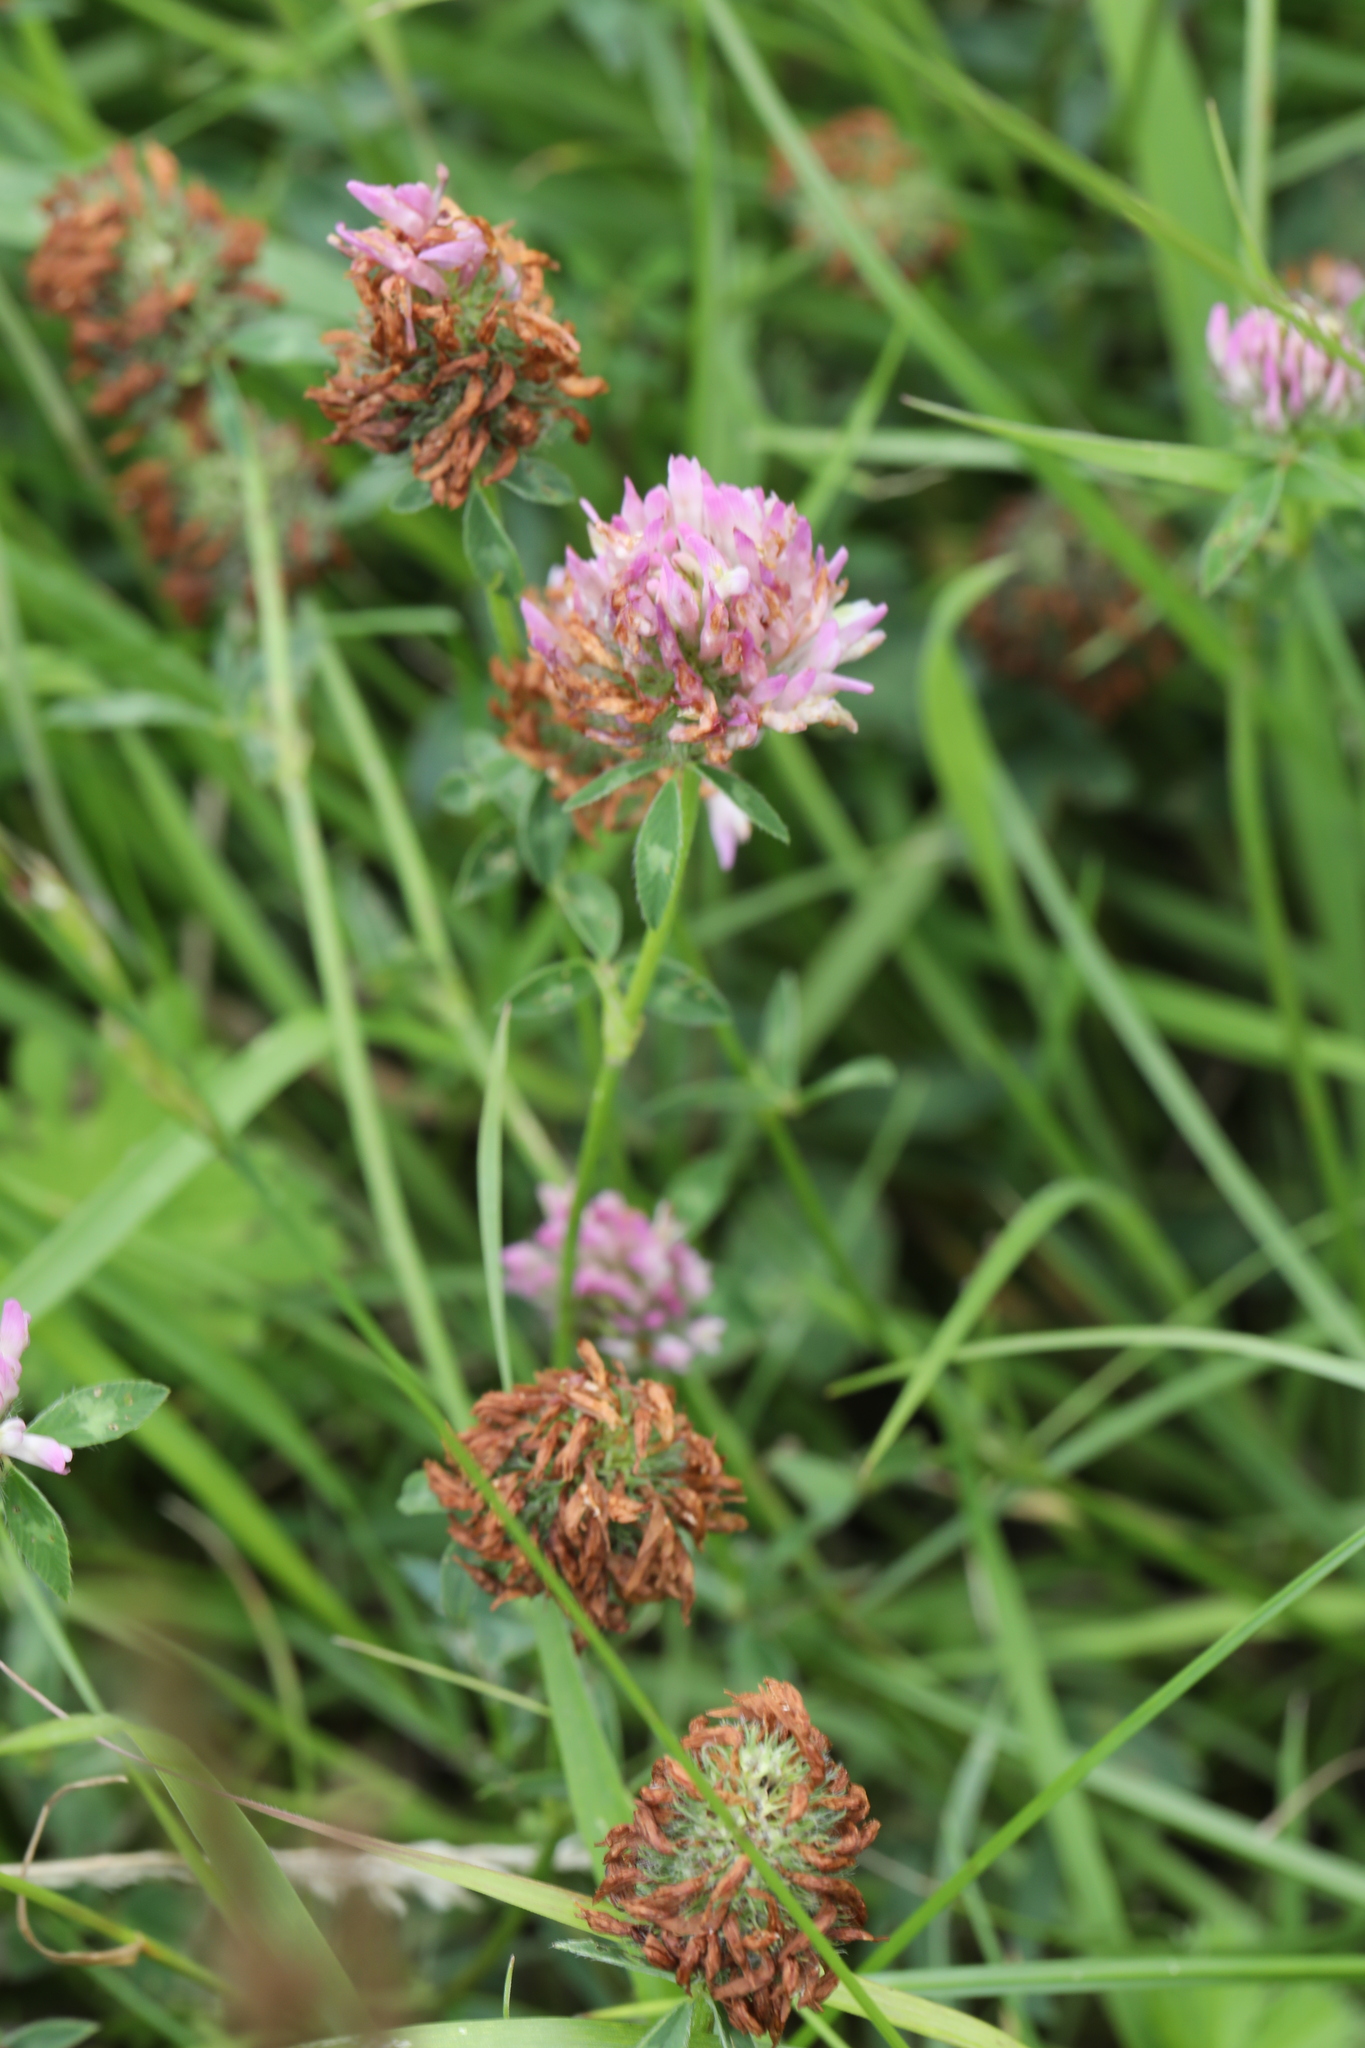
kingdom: Plantae
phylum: Tracheophyta
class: Magnoliopsida
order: Fabales
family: Fabaceae
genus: Trifolium
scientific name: Trifolium pratense
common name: Red clover
